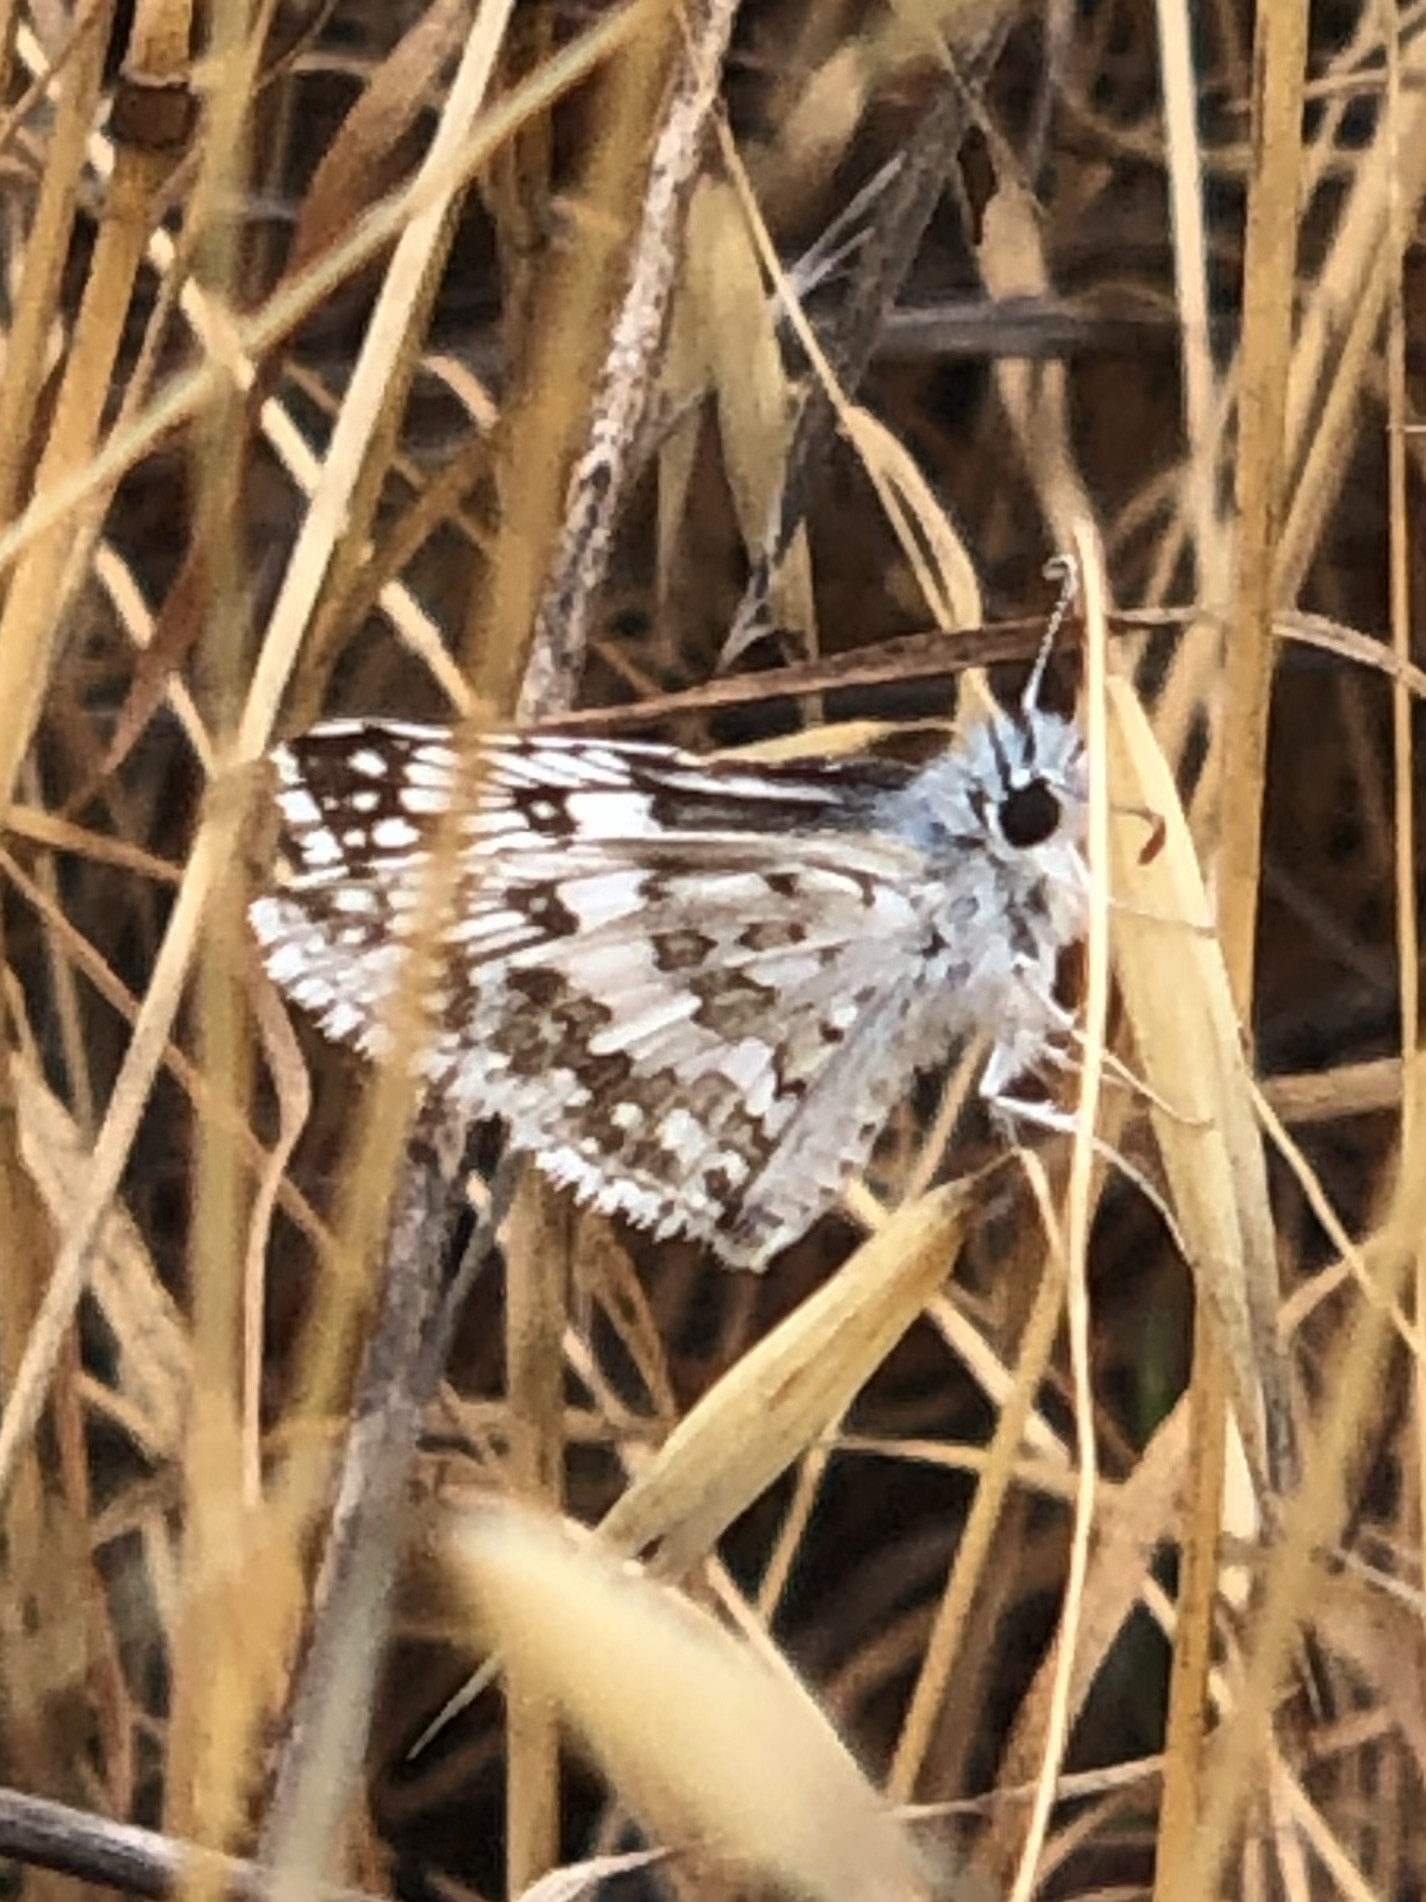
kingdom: Animalia
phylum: Arthropoda
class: Insecta
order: Lepidoptera
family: Hesperiidae
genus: Burnsius
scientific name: Burnsius communis
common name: Common checkered-skipper
